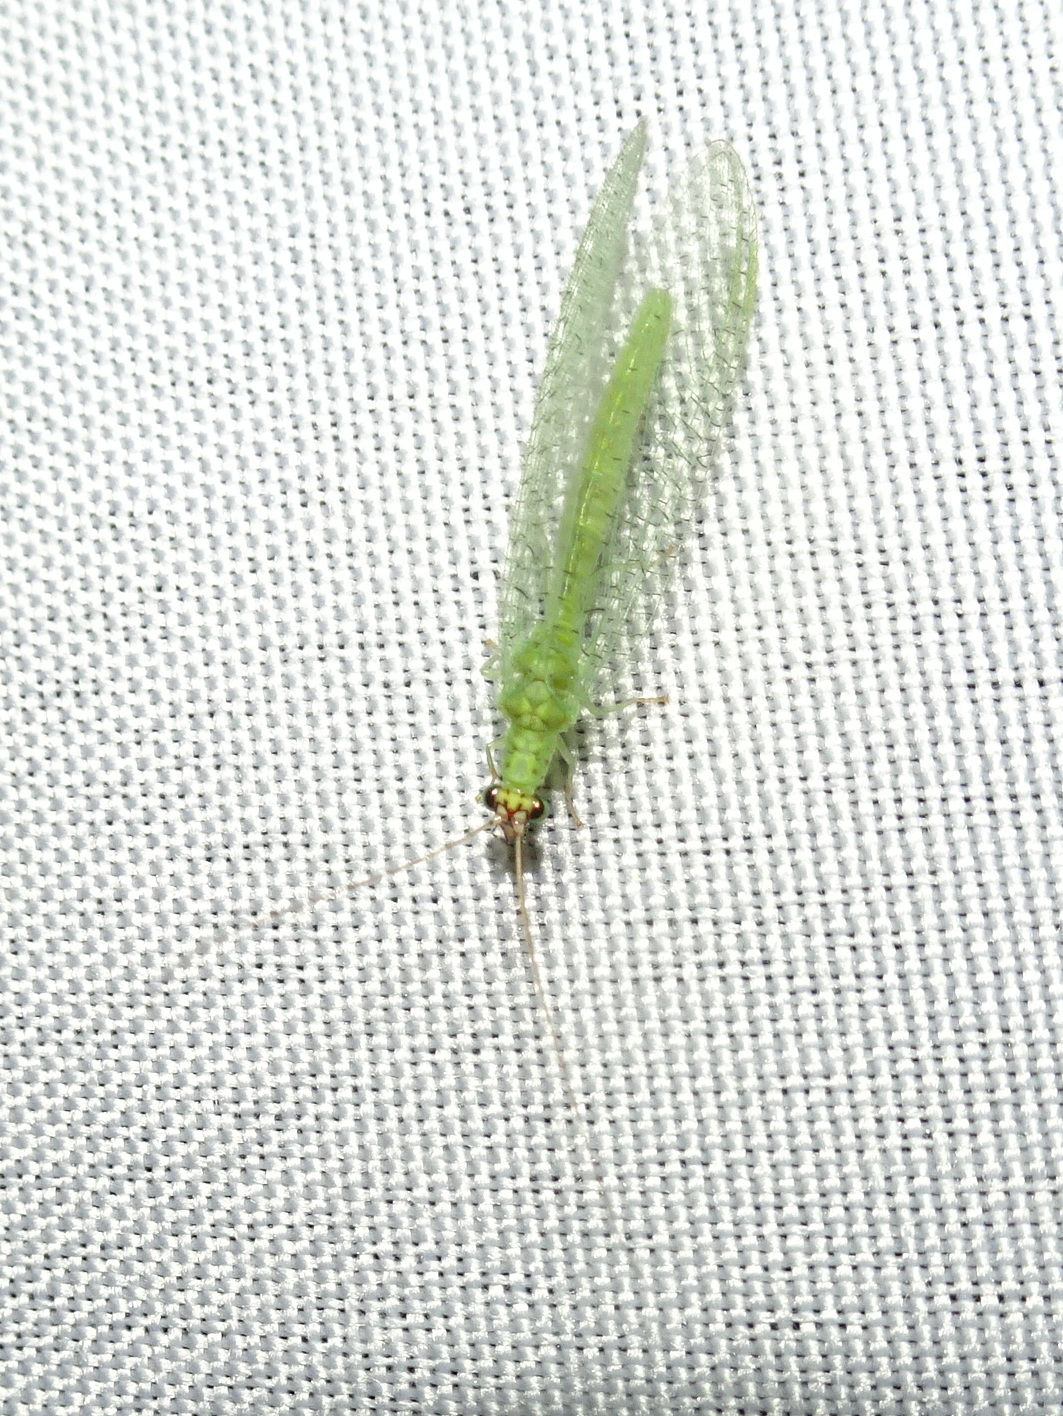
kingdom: Animalia
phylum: Arthropoda
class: Insecta
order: Neuroptera
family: Chrysopidae
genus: Chrysopa
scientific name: Chrysopa oculata
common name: Golden-eyed lacewing
